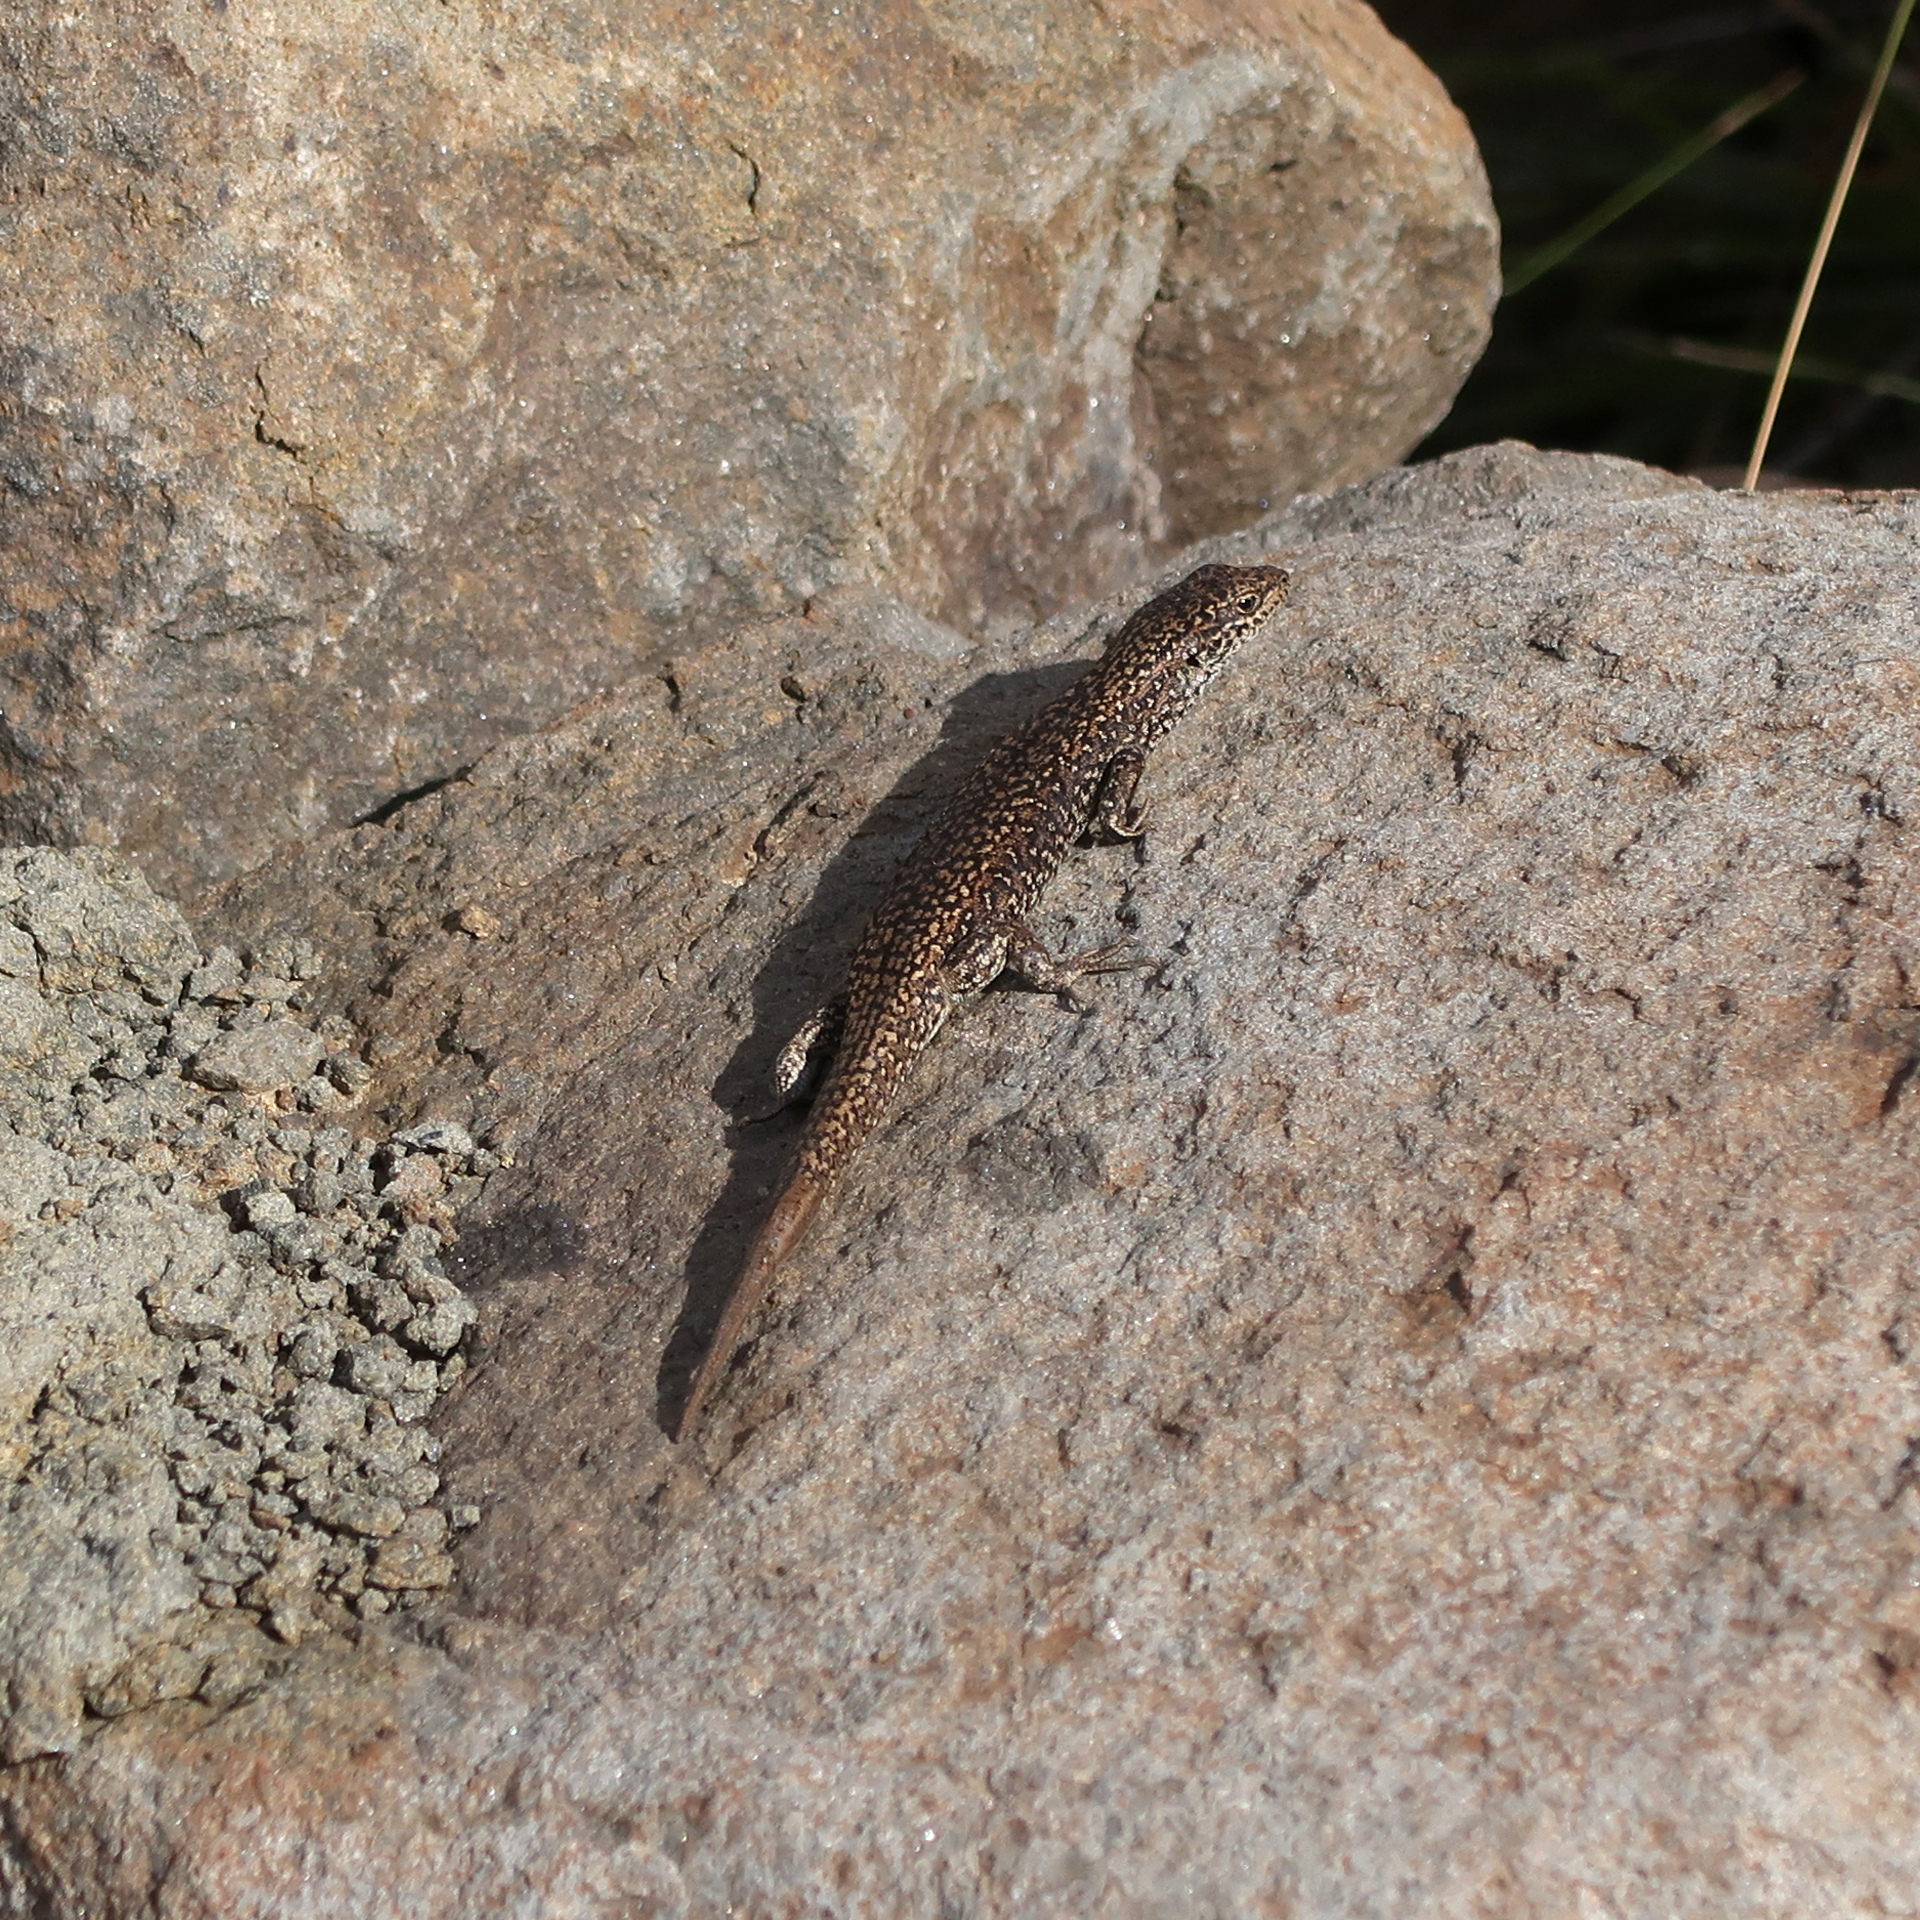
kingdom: Animalia
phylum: Chordata
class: Squamata
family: Scincidae
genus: Carinascincus
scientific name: Carinascincus ocellatus
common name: Ocellated cool-skink
